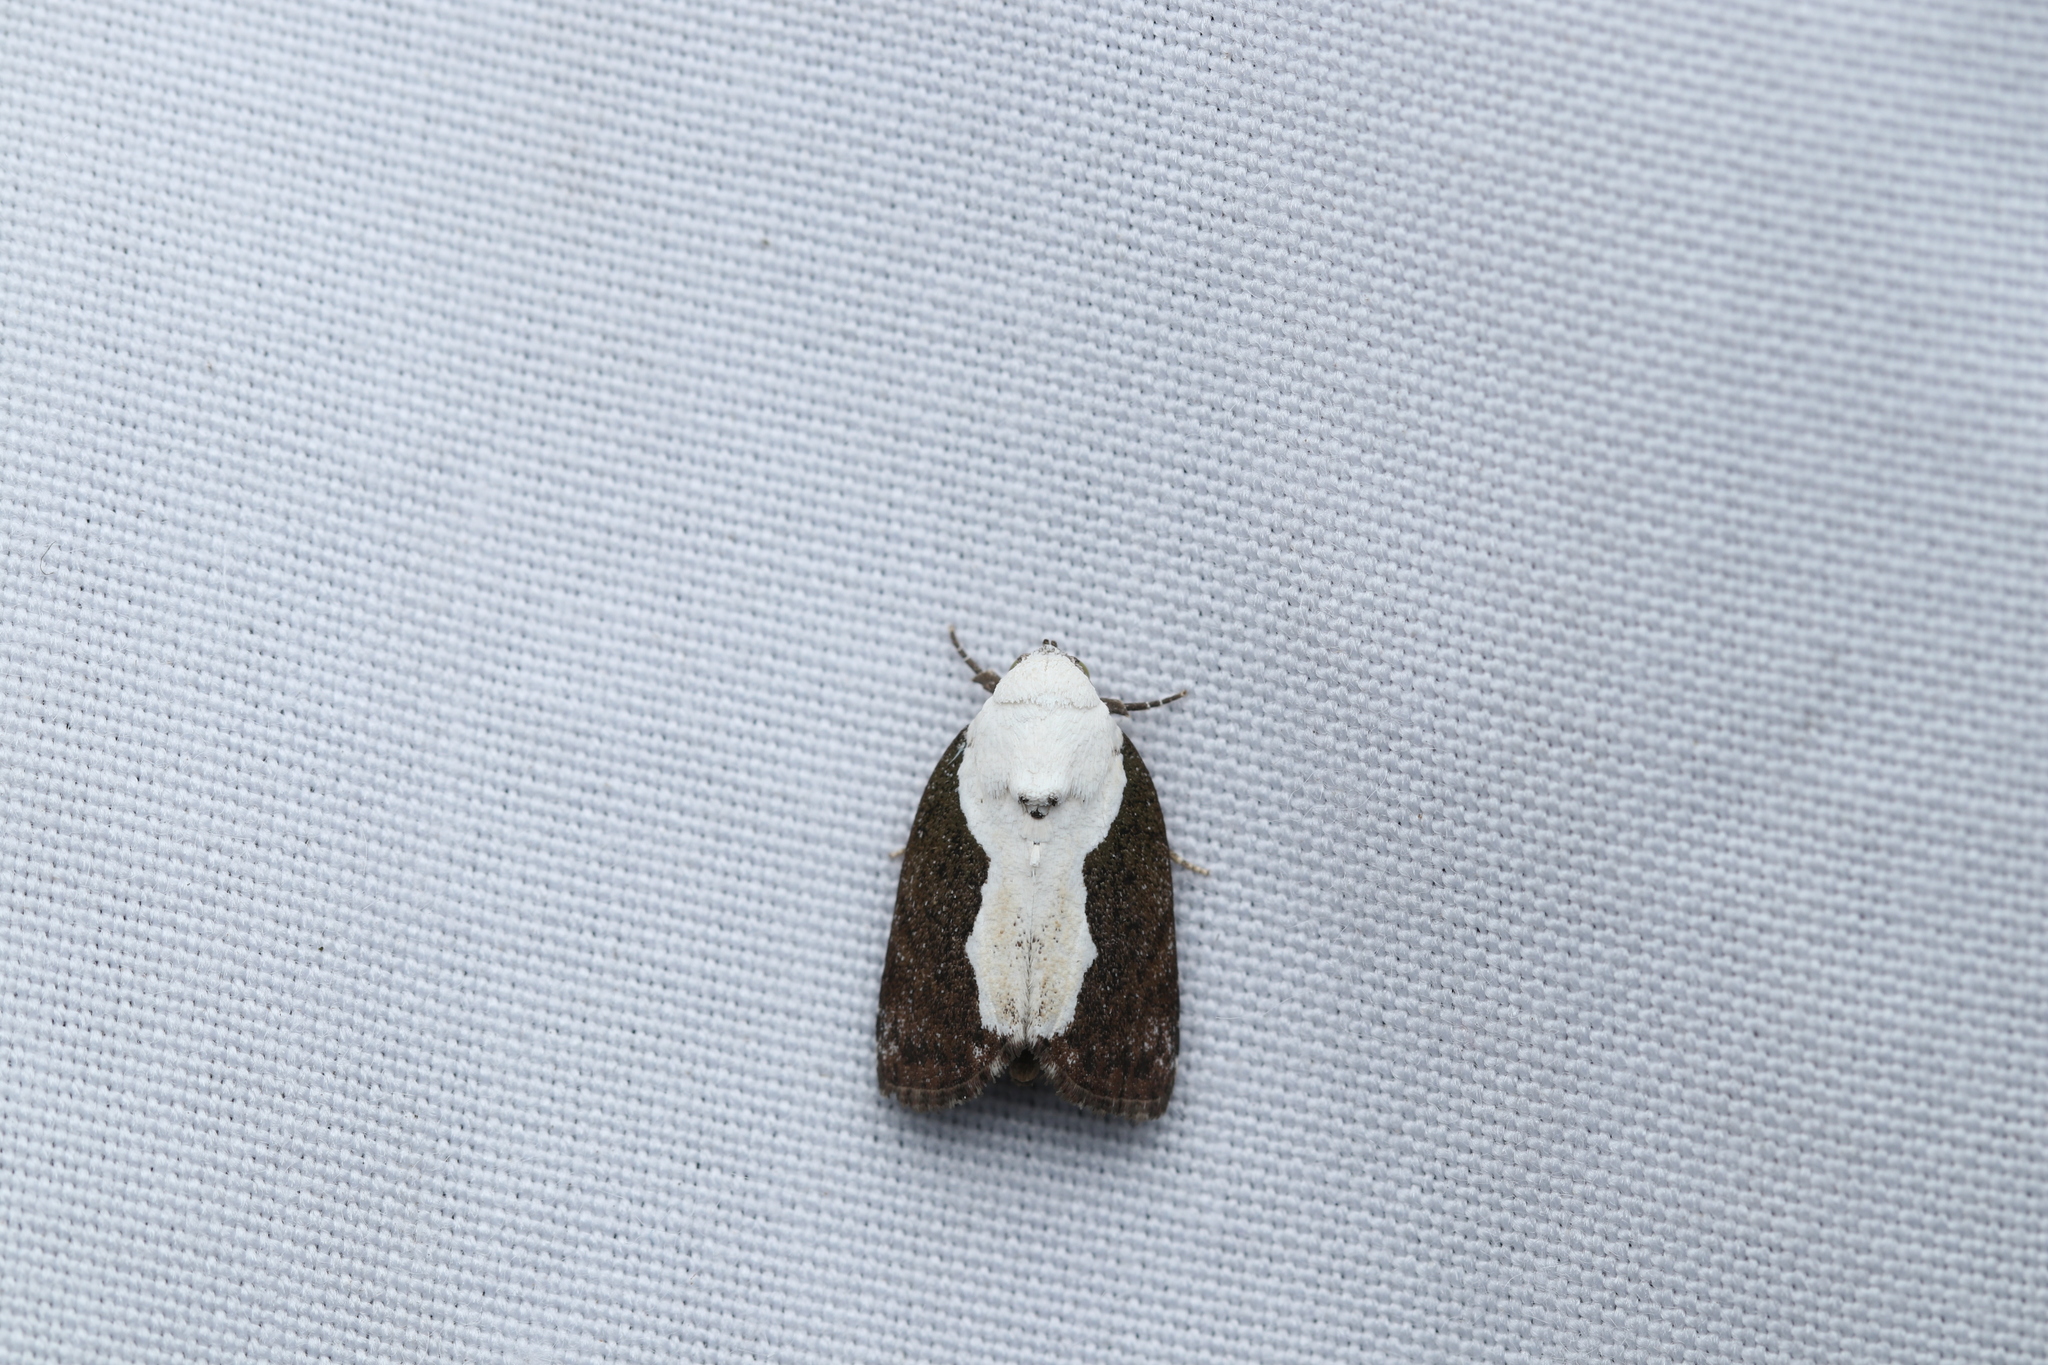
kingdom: Animalia
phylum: Arthropoda
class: Insecta
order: Lepidoptera
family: Nolidae
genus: Tathothripa
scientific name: Tathothripa continua
